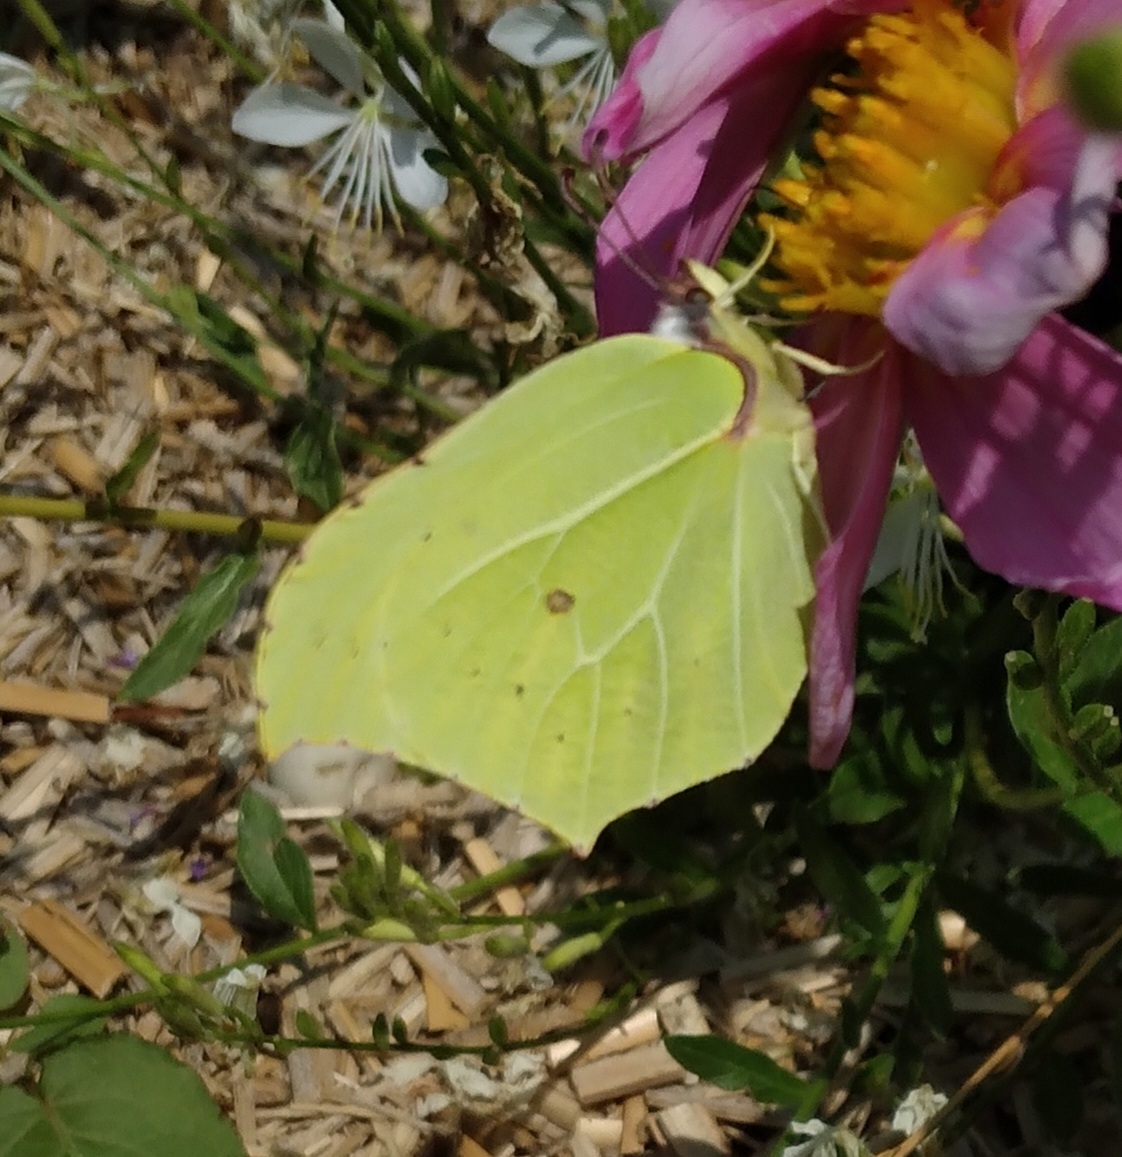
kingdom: Animalia
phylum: Arthropoda
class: Insecta
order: Lepidoptera
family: Pieridae
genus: Gonepteryx
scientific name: Gonepteryx rhamni
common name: Brimstone
